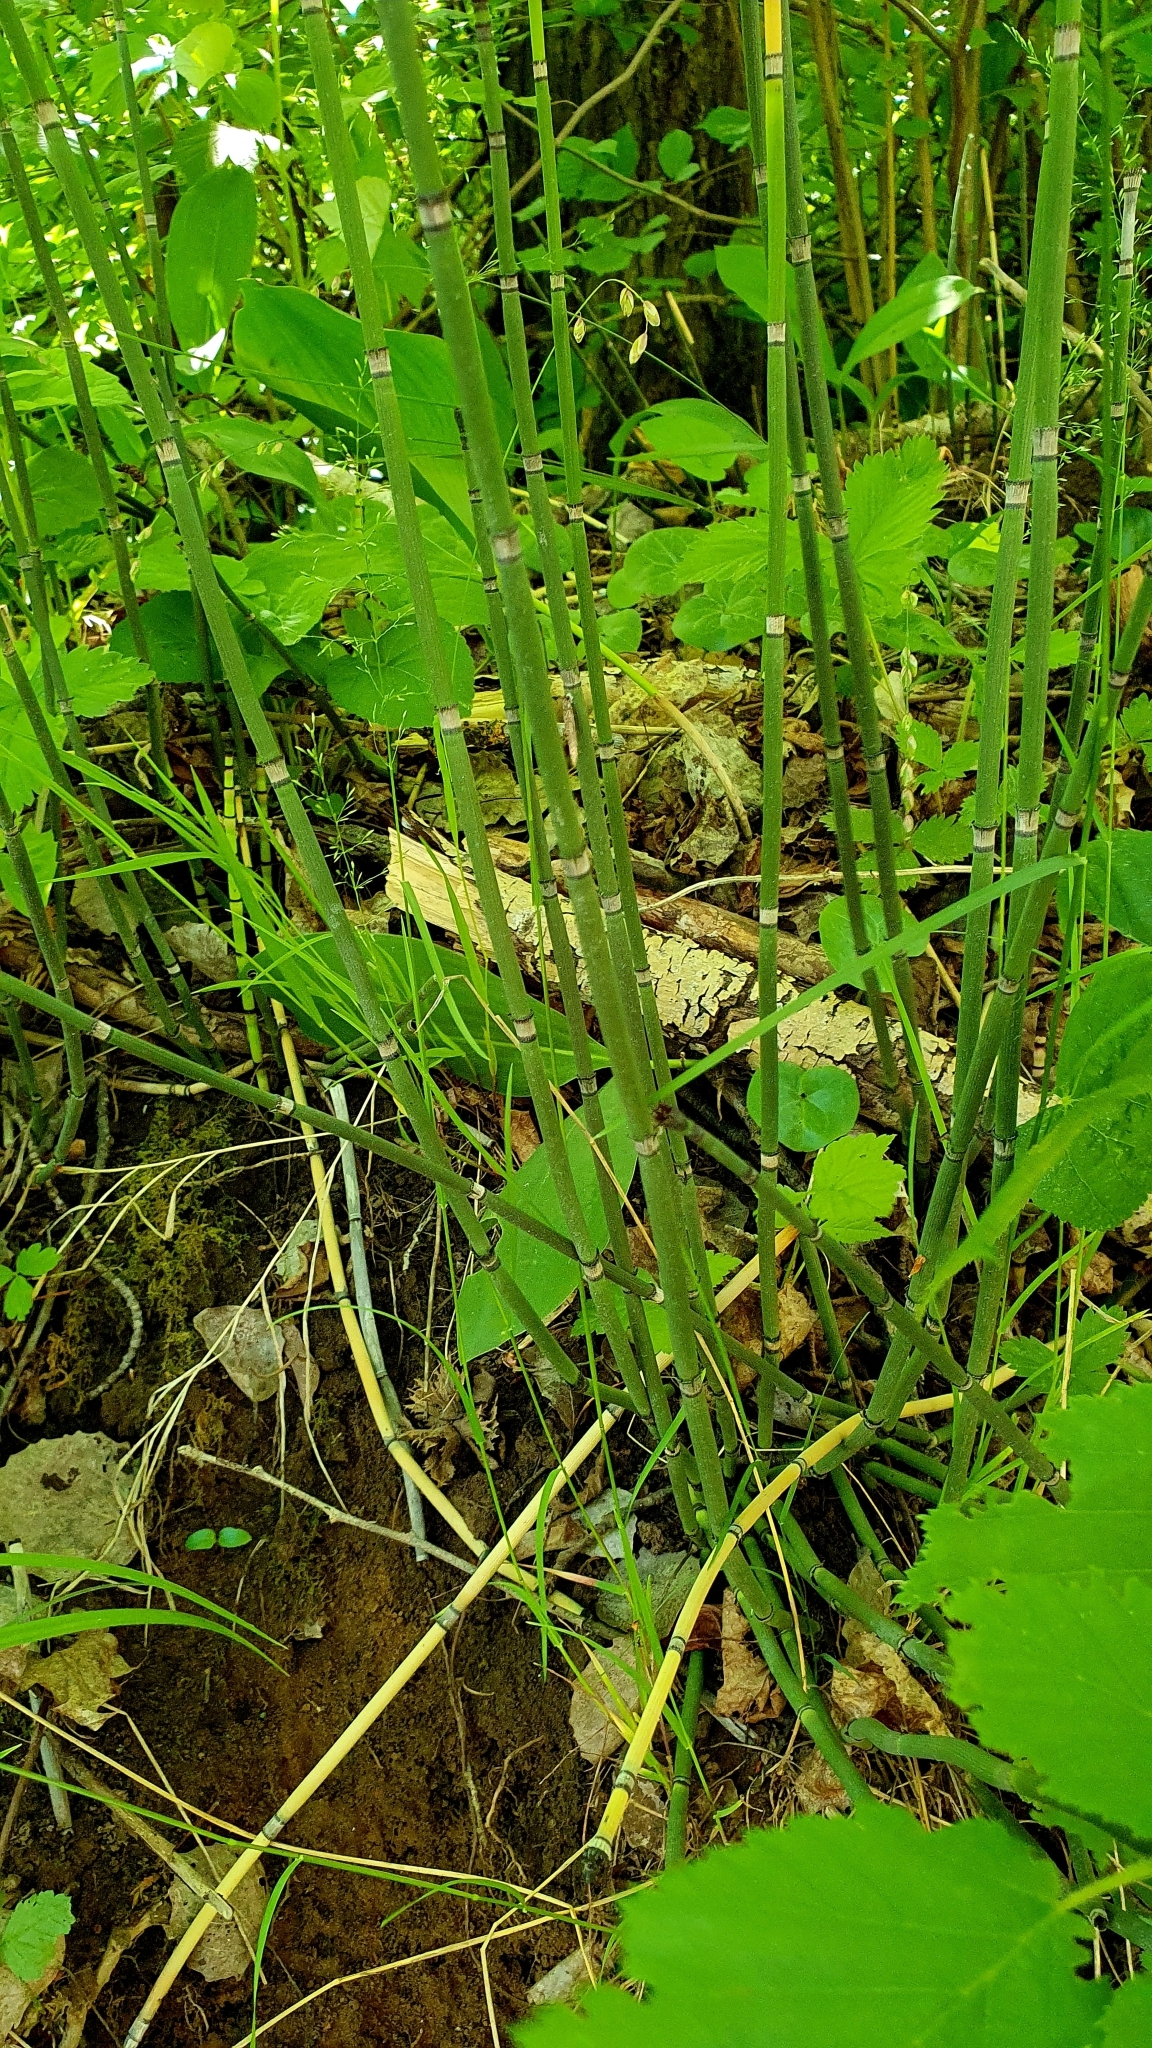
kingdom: Plantae
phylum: Tracheophyta
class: Polypodiopsida
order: Equisetales
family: Equisetaceae
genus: Equisetum
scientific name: Equisetum hyemale
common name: Rough horsetail
